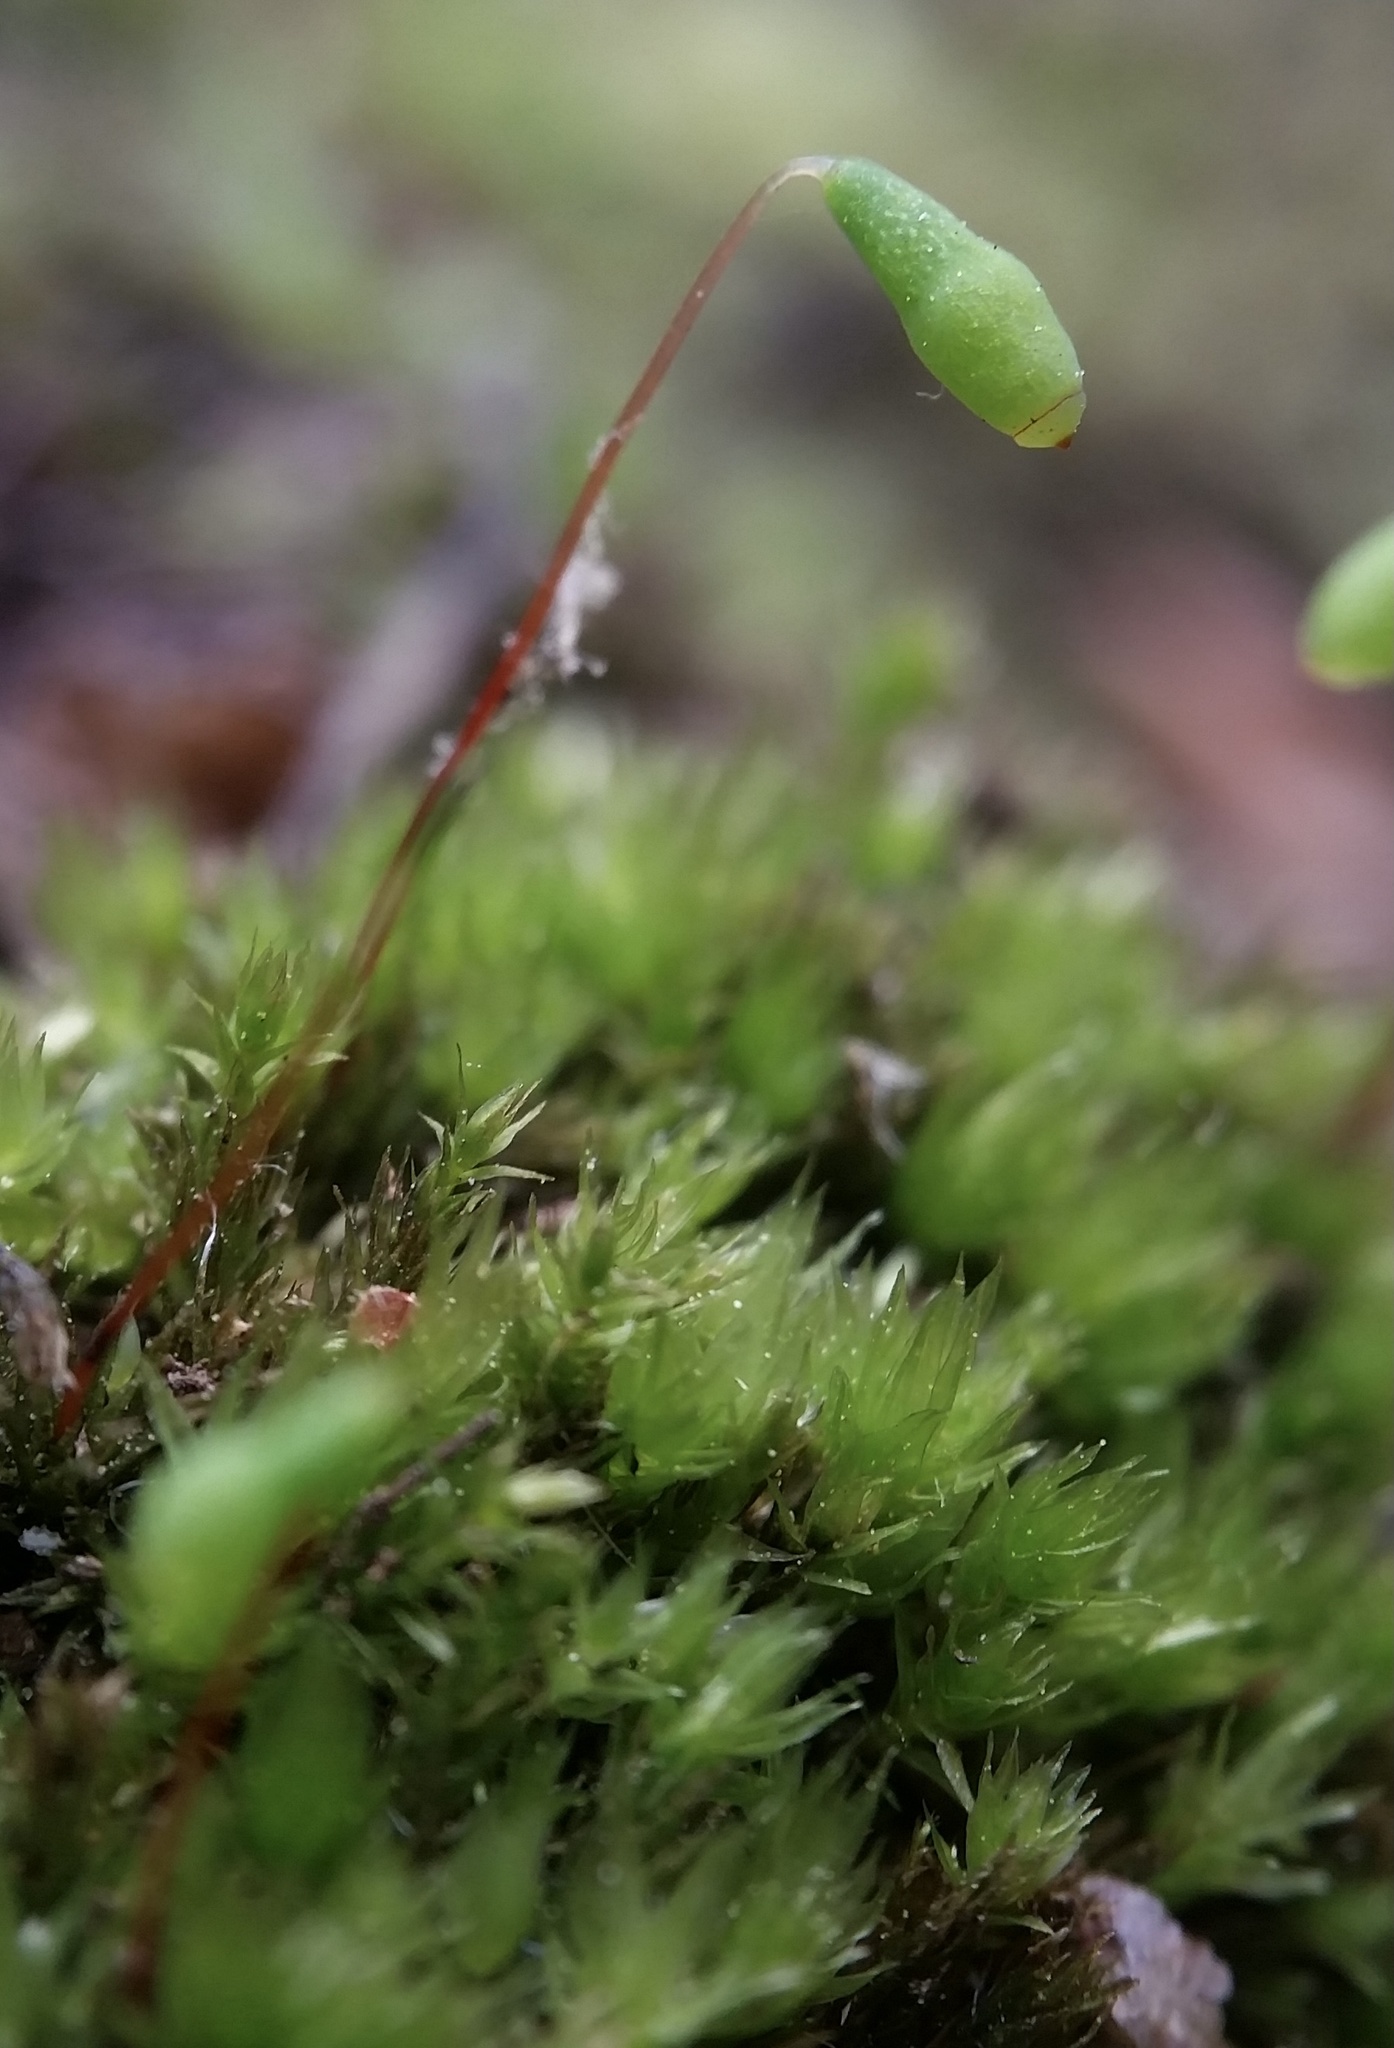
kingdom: Plantae
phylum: Bryophyta
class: Bryopsida
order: Bryales
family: Mniaceae
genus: Pohlia
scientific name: Pohlia nutans
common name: Nodding thread-moss
